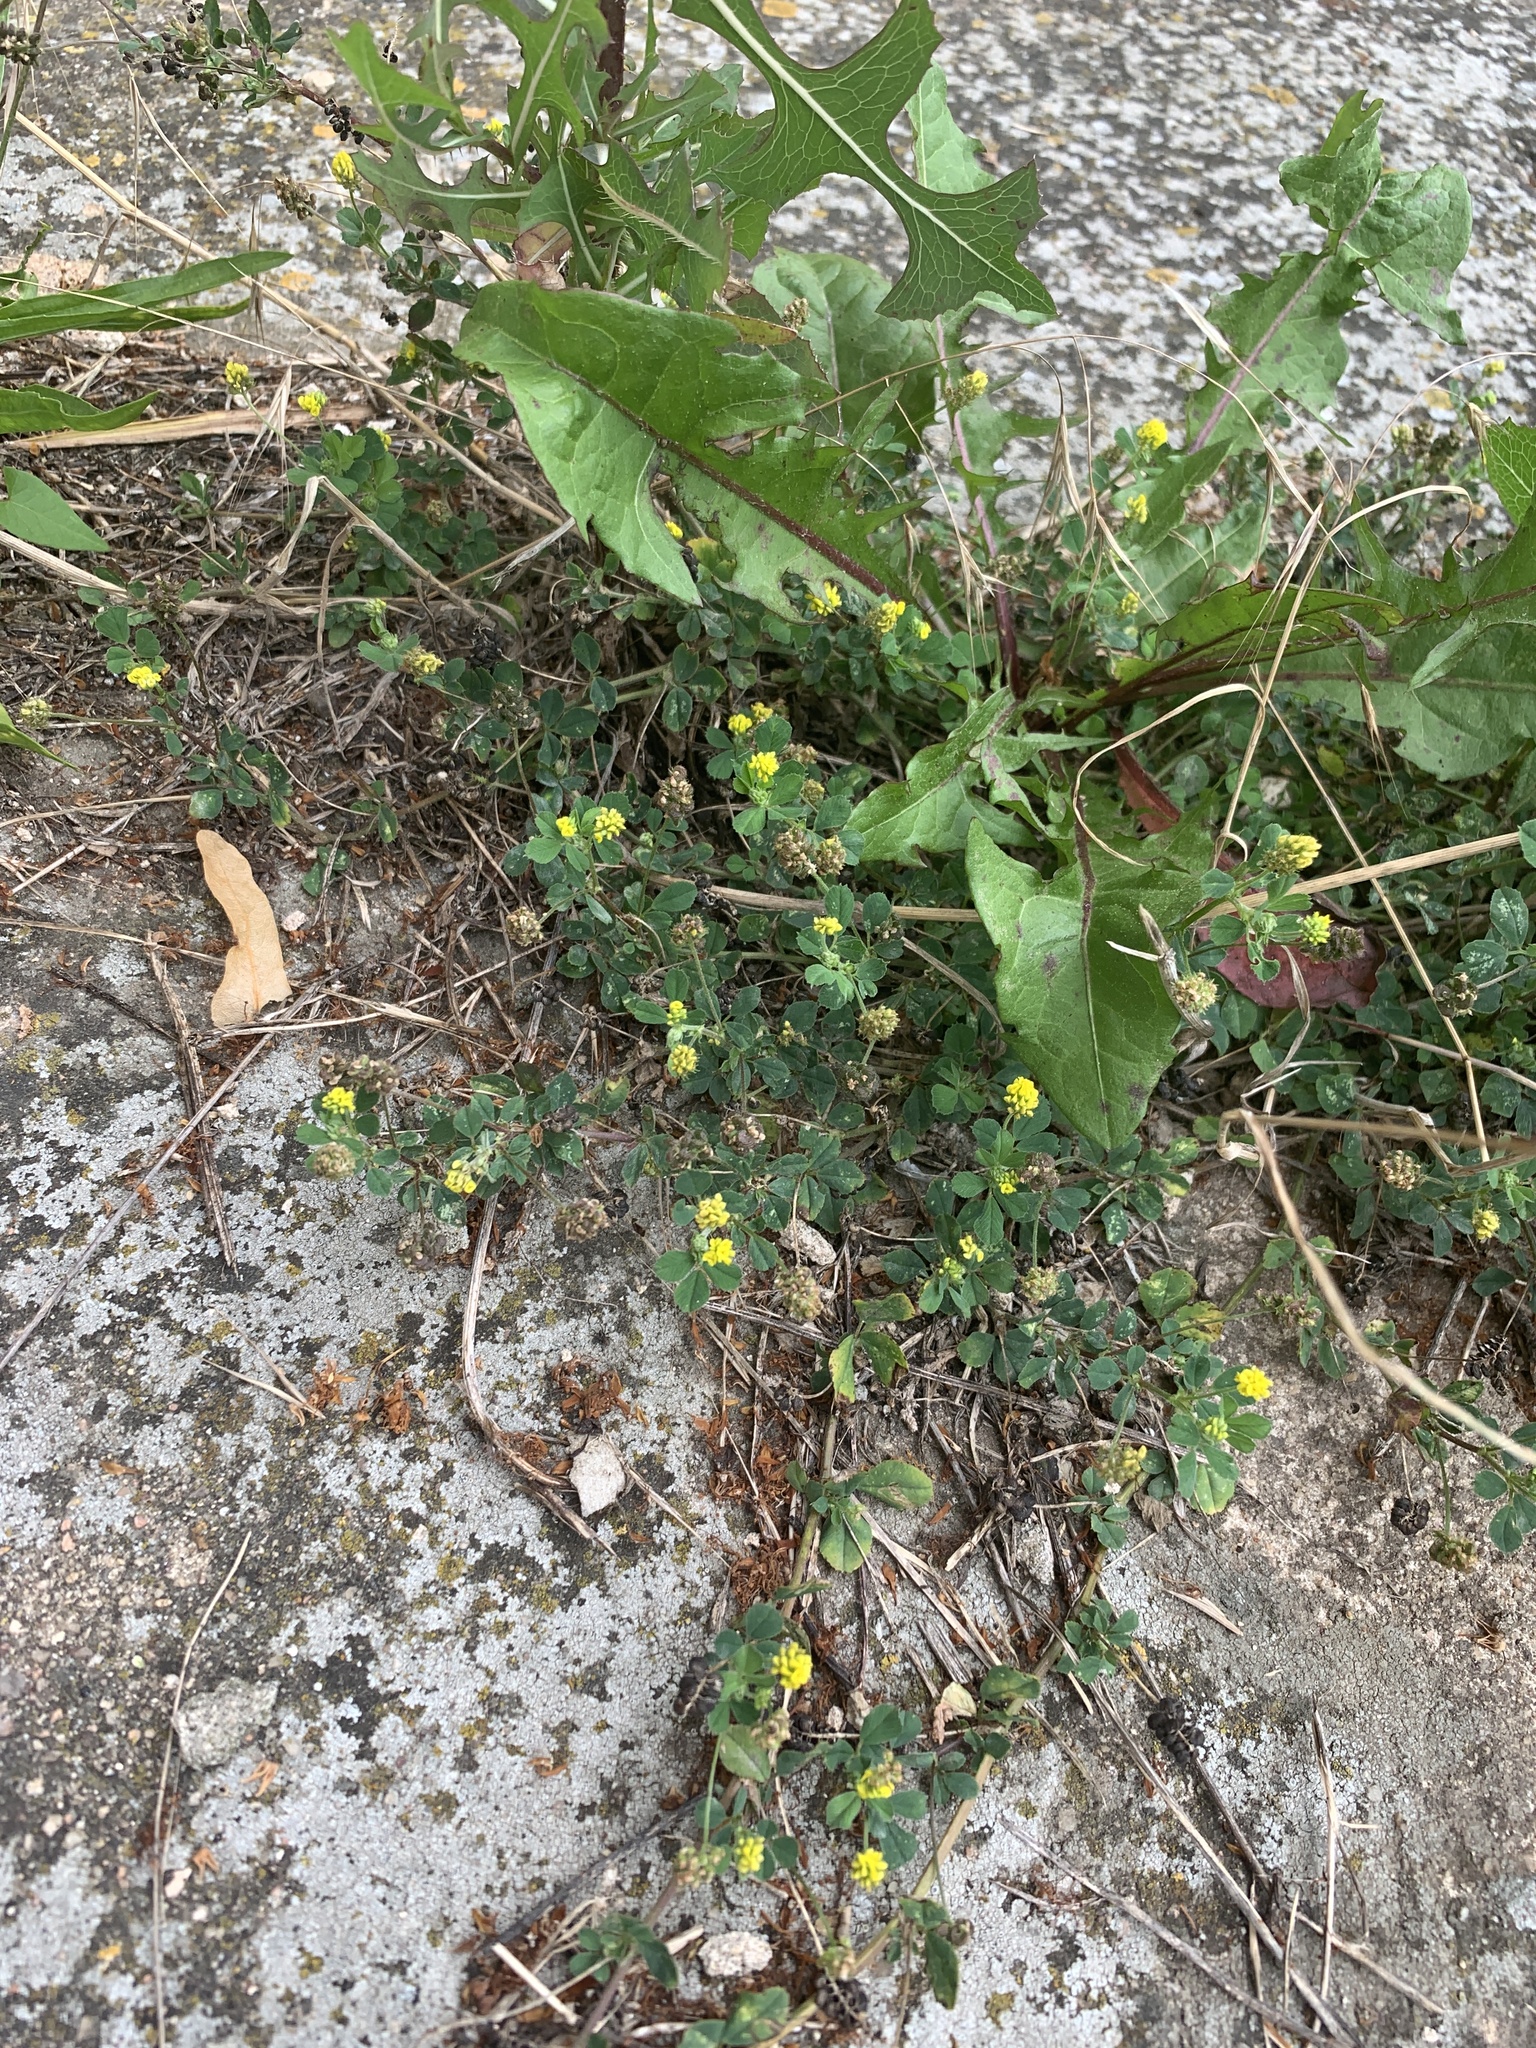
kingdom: Plantae
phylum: Tracheophyta
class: Magnoliopsida
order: Fabales
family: Fabaceae
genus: Medicago
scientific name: Medicago lupulina
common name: Black medick
